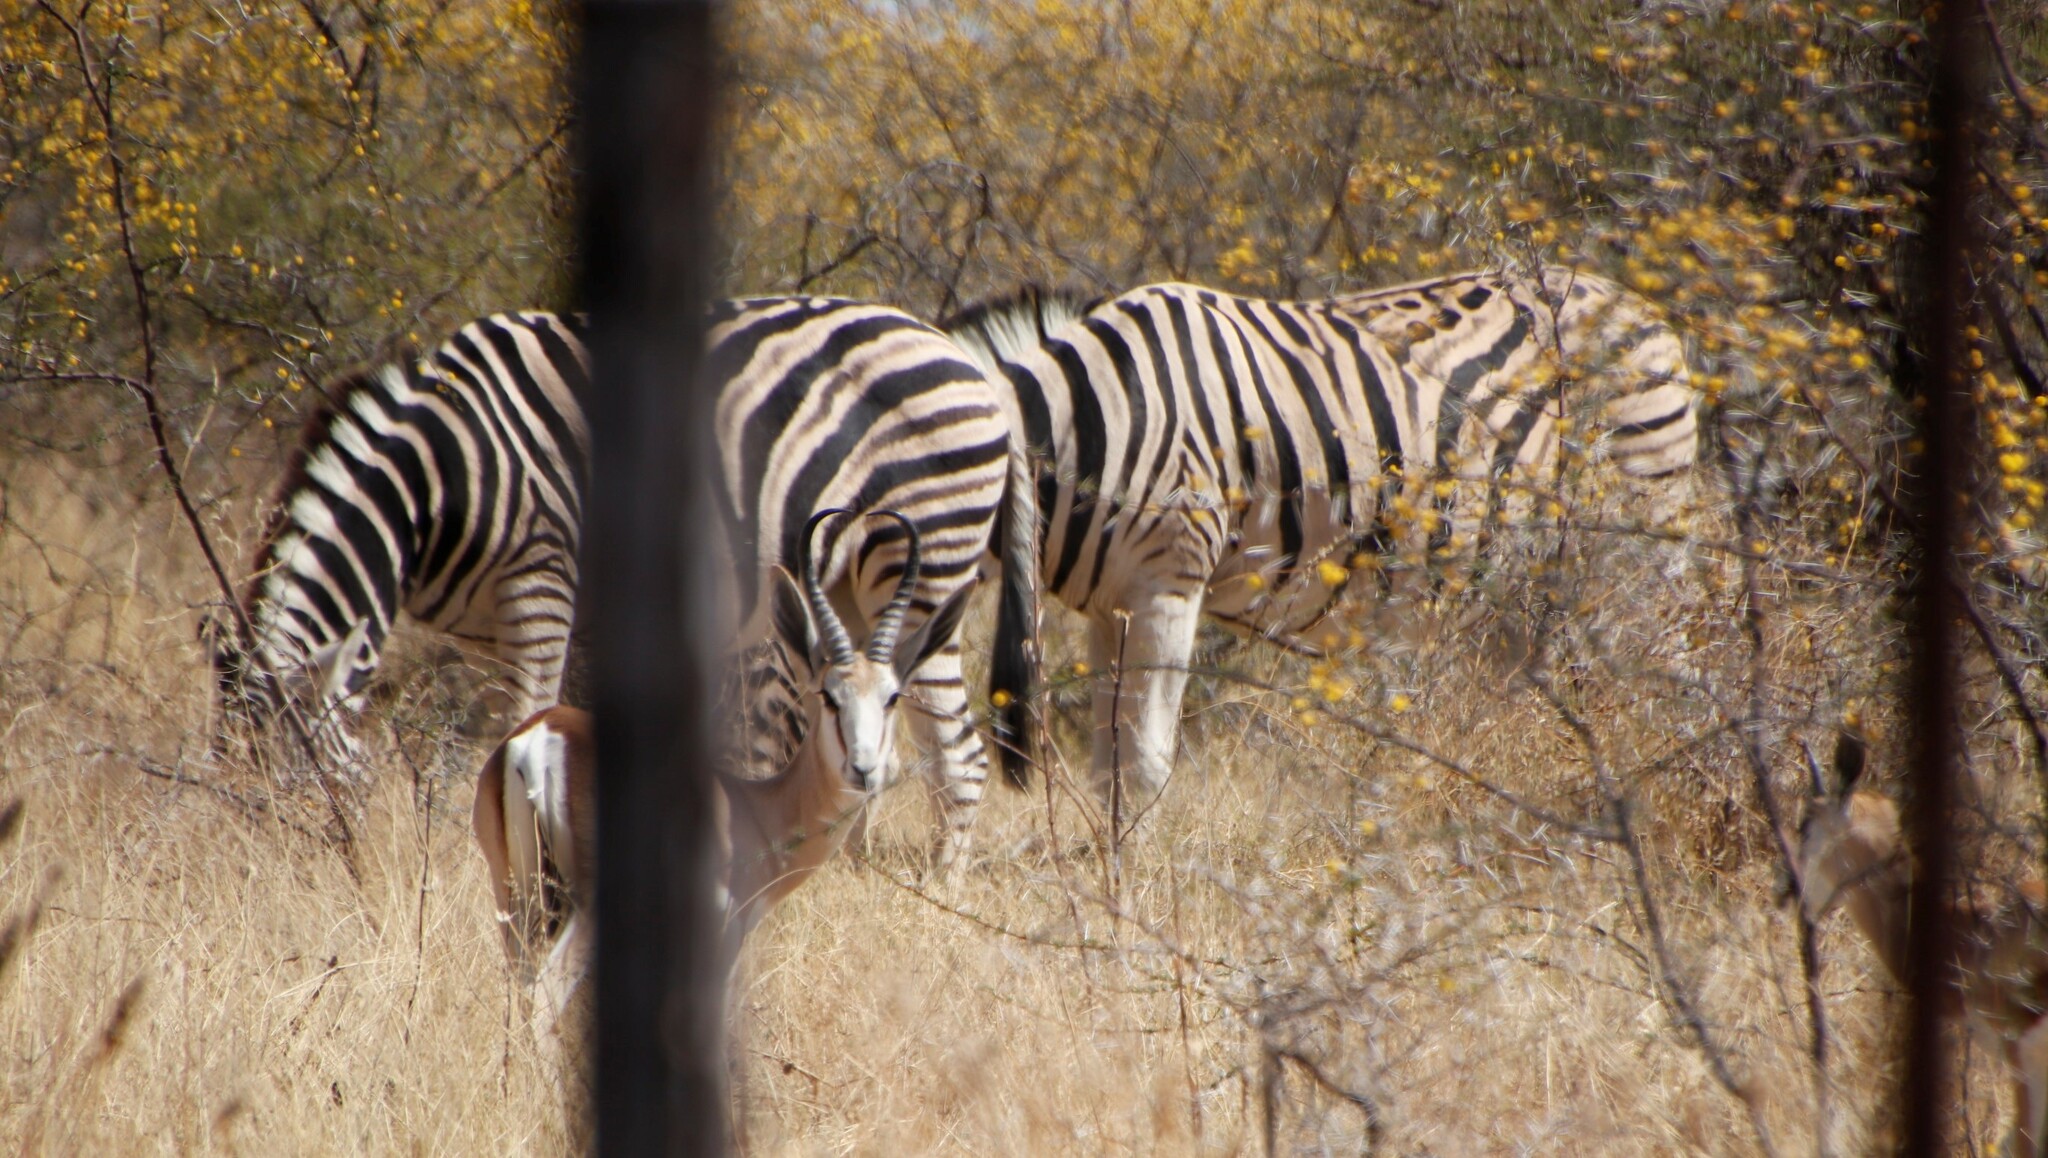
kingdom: Plantae
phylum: Tracheophyta
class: Magnoliopsida
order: Fabales
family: Fabaceae
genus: Vachellia
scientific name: Vachellia nebrownii
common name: Water acacia
